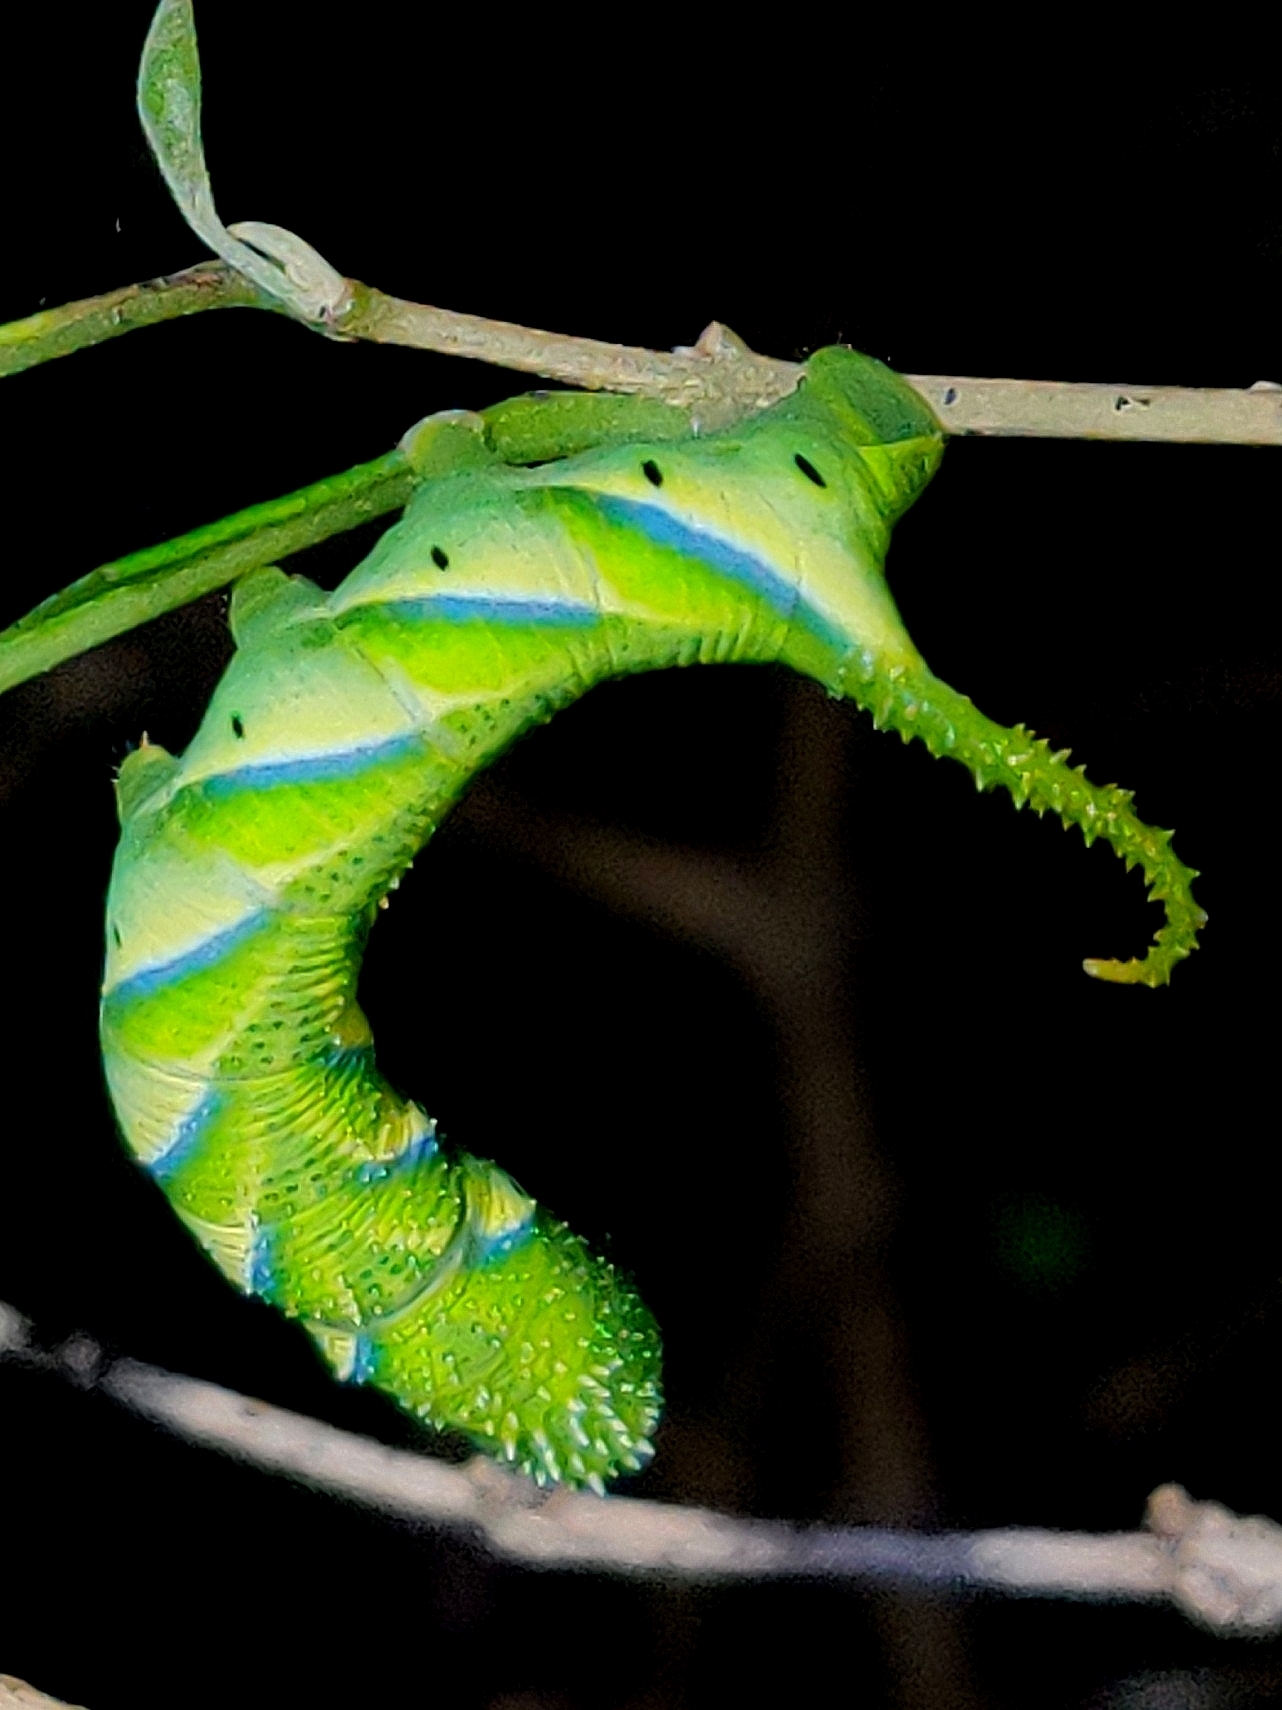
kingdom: Animalia
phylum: Arthropoda
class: Insecta
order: Lepidoptera
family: Sphingidae
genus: Acherontia
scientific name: Acherontia lachesis
